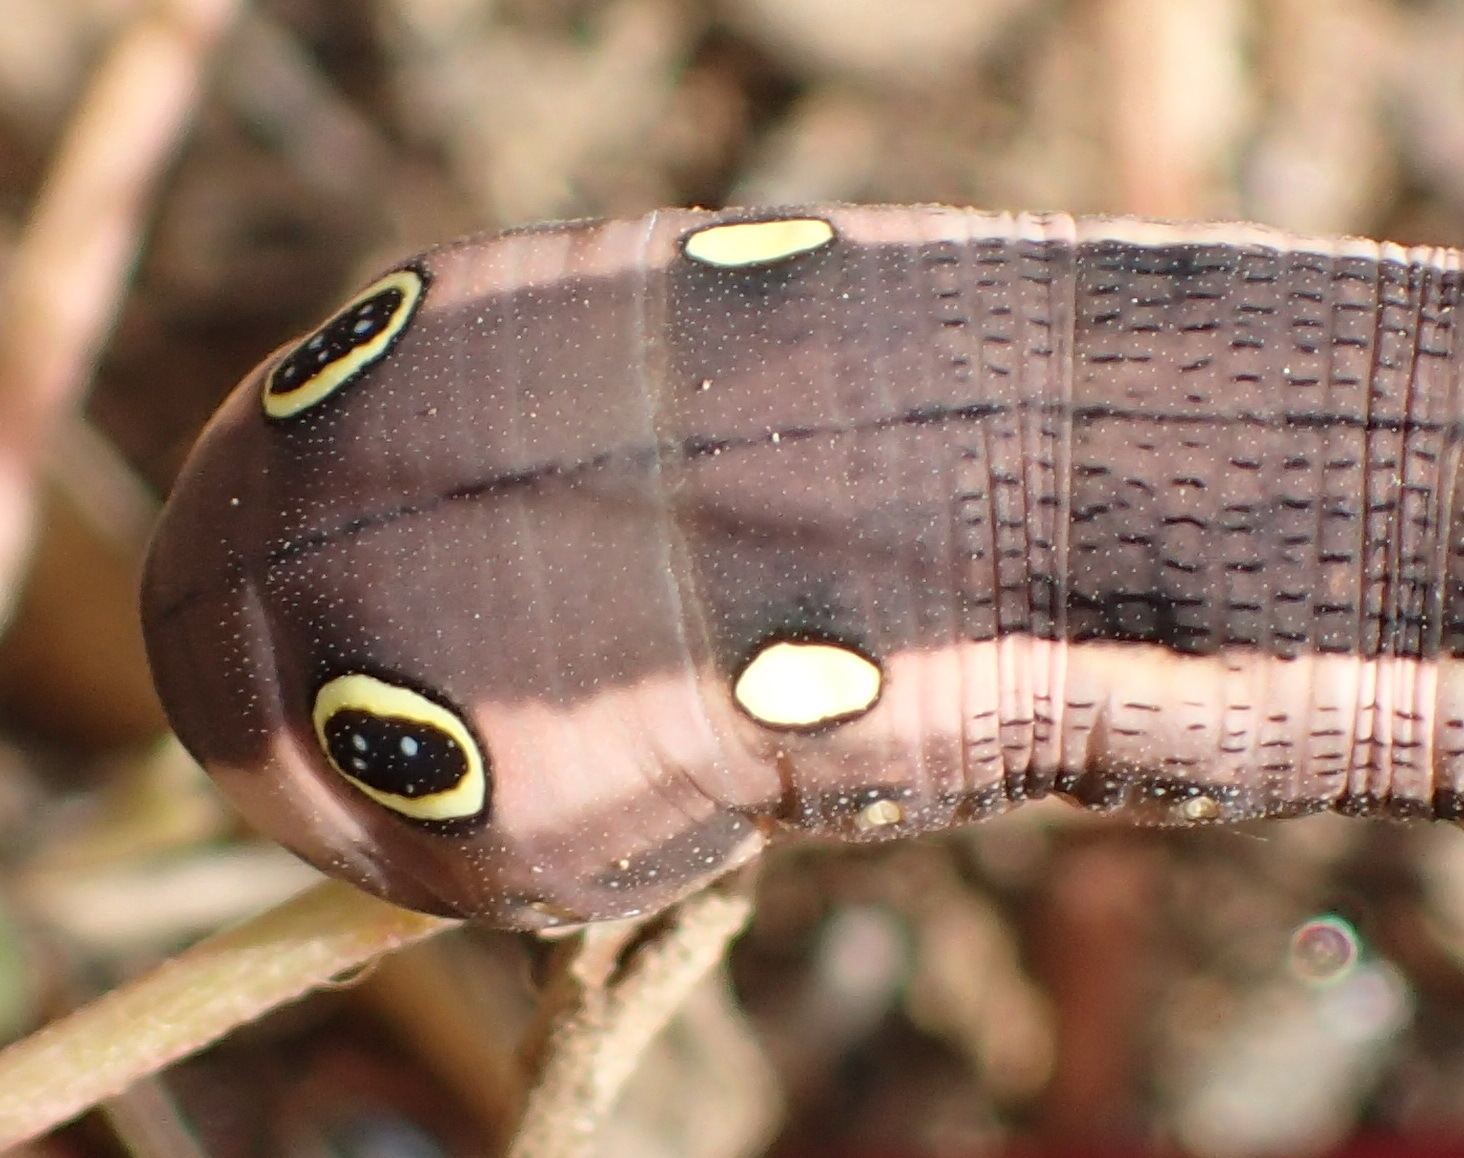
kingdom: Animalia
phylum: Arthropoda
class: Insecta
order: Lepidoptera
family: Sphingidae
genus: Hippotion
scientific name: Hippotion celerio
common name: Silver-striped hawk-moth
